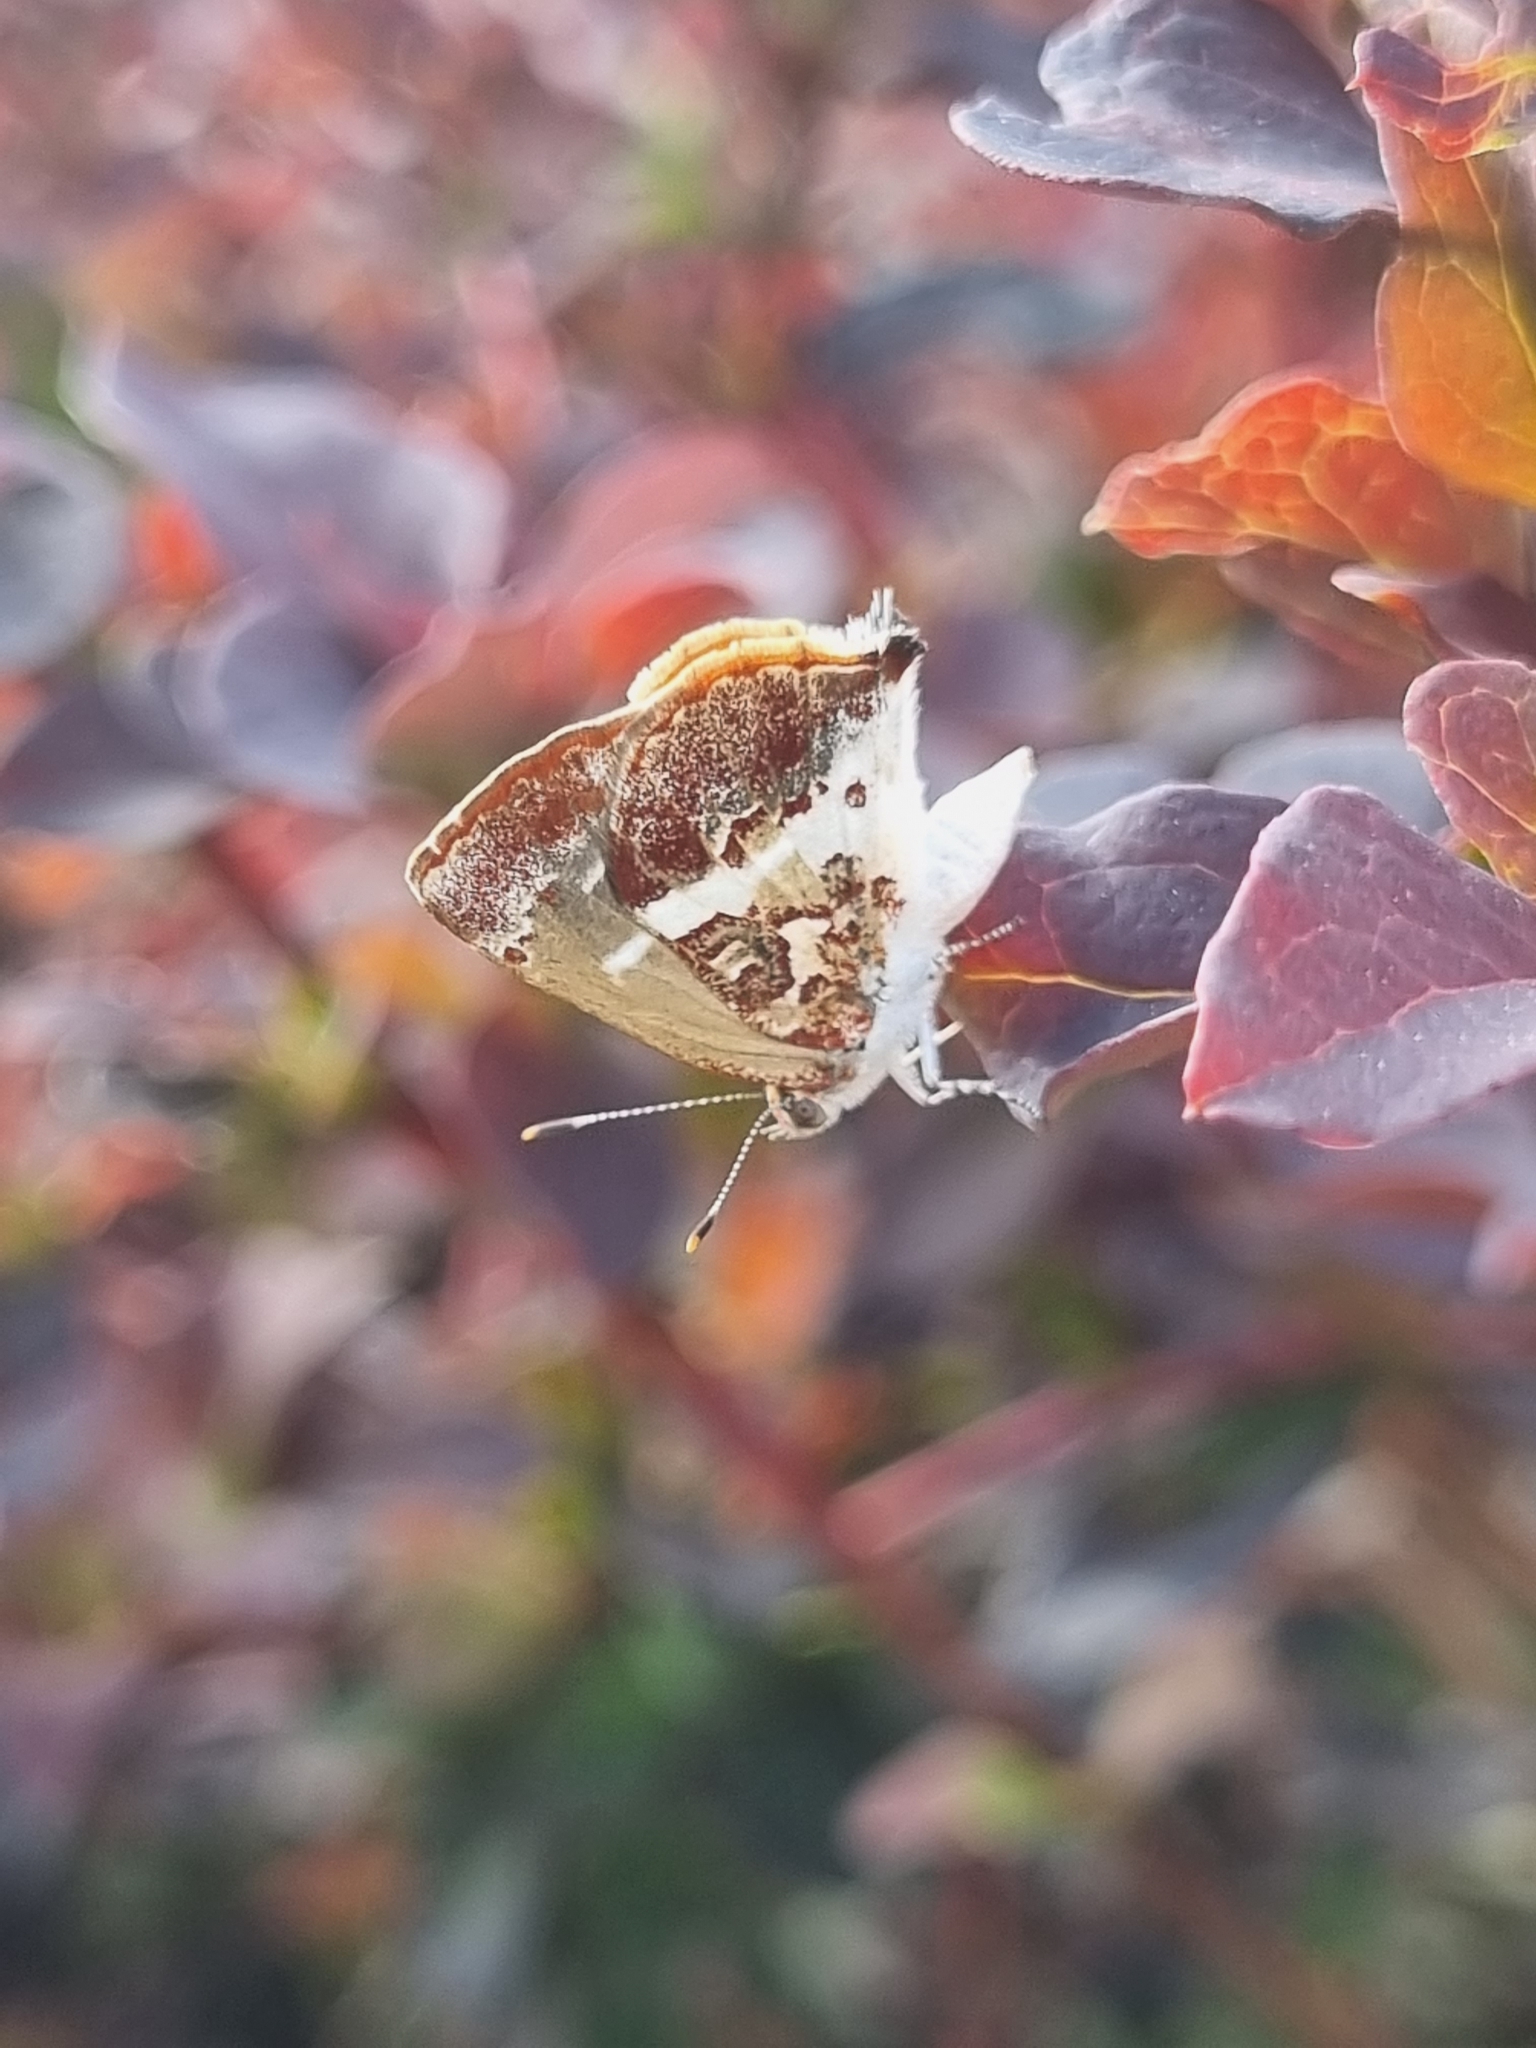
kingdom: Animalia
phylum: Arthropoda
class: Insecta
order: Lepidoptera
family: Lycaenidae
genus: Ministrymon
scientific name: Ministrymon gamma
